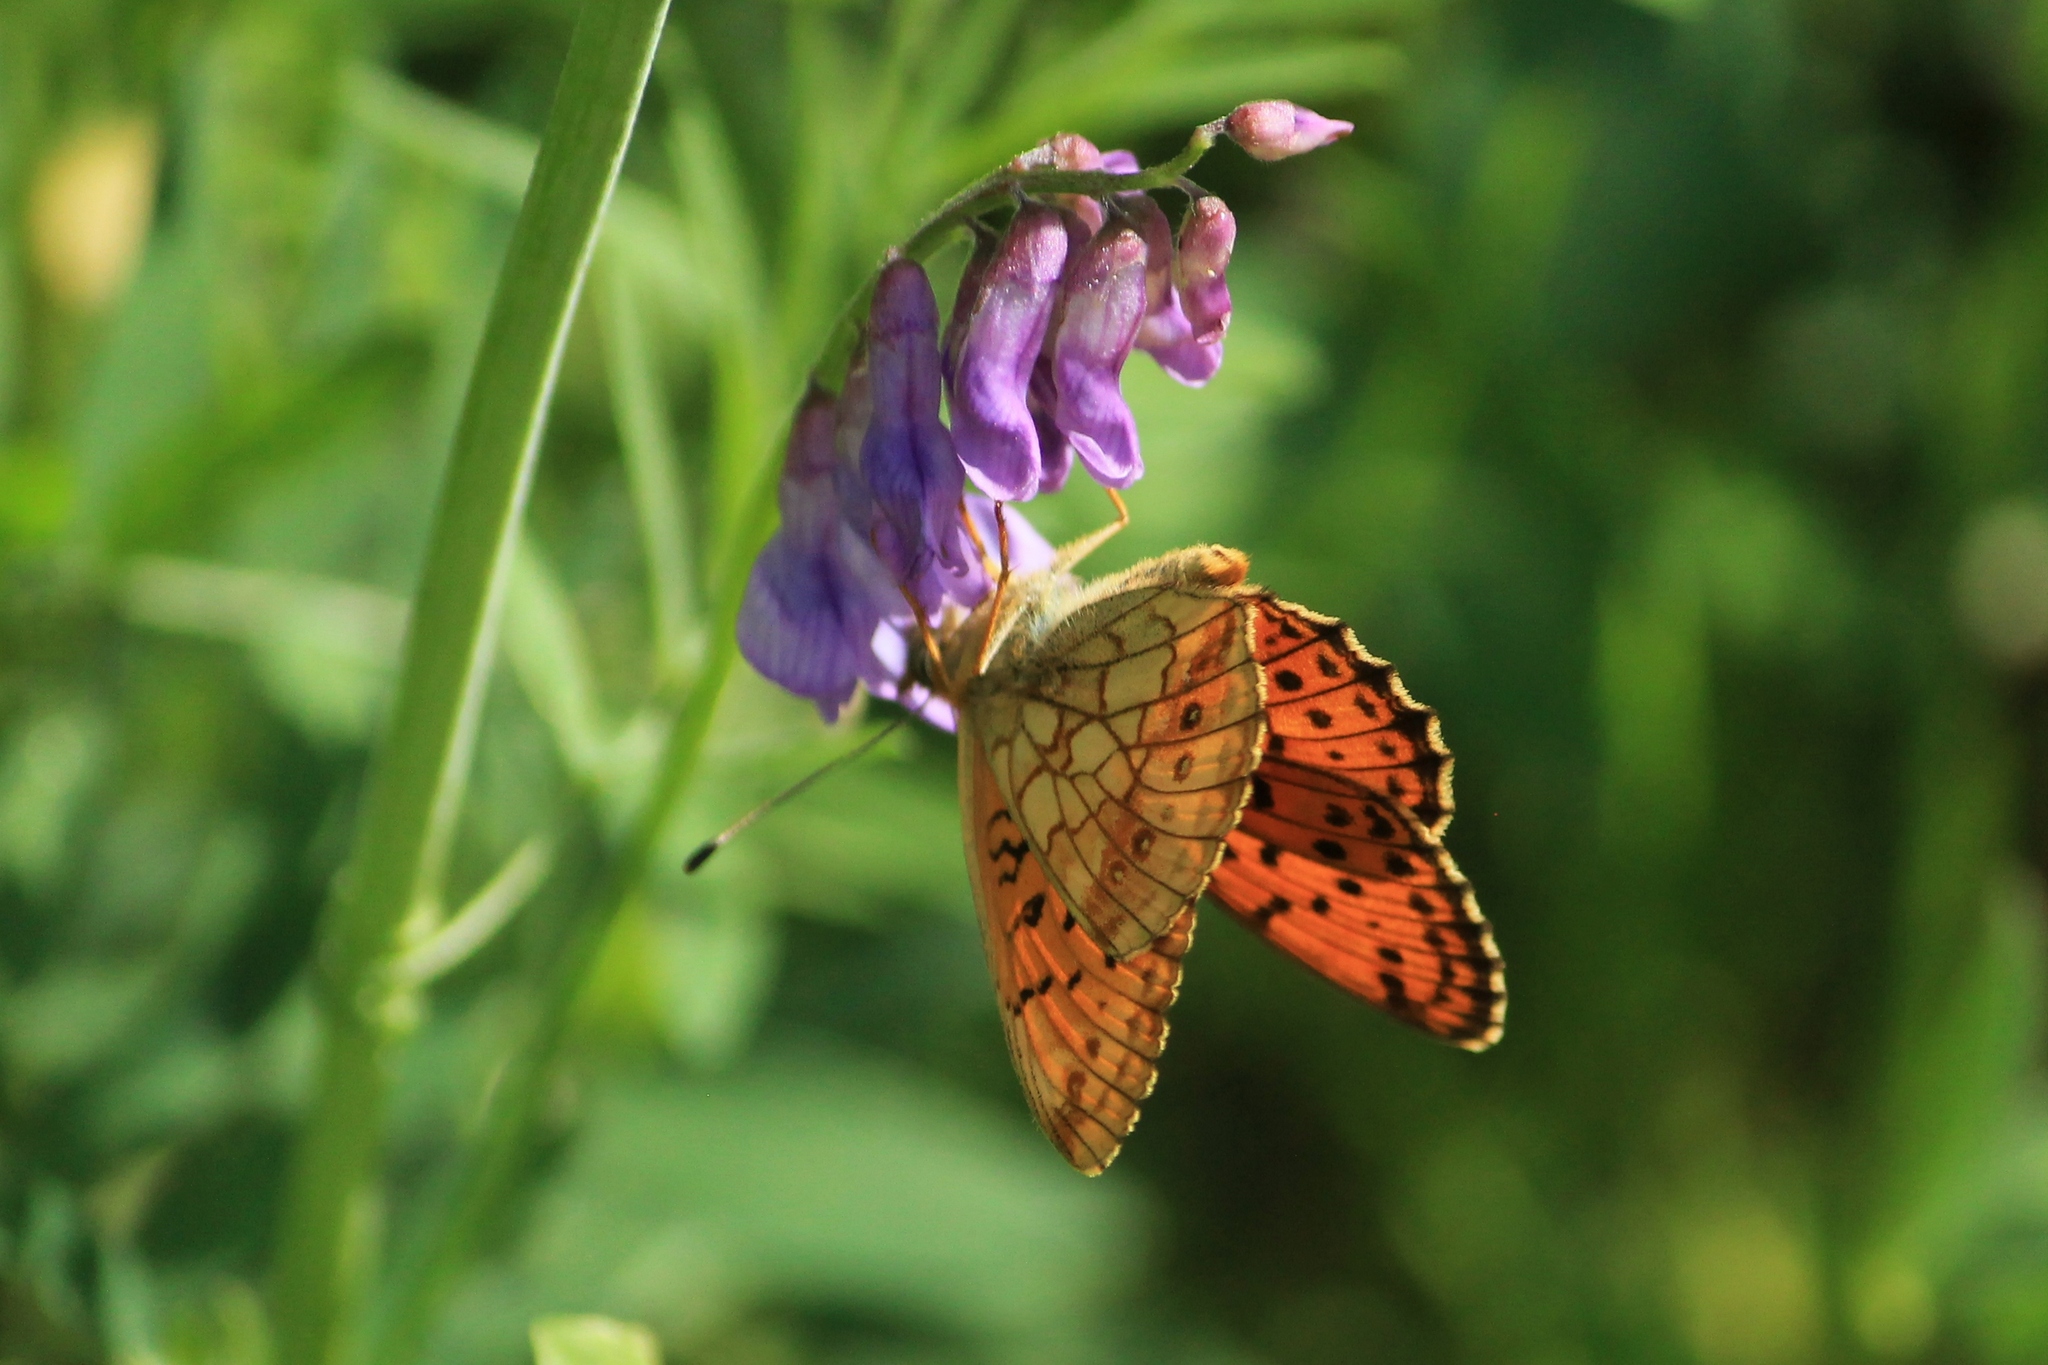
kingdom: Animalia
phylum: Arthropoda
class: Insecta
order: Lepidoptera
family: Nymphalidae
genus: Brenthis
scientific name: Brenthis ino
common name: Lesser marbled fritillary
